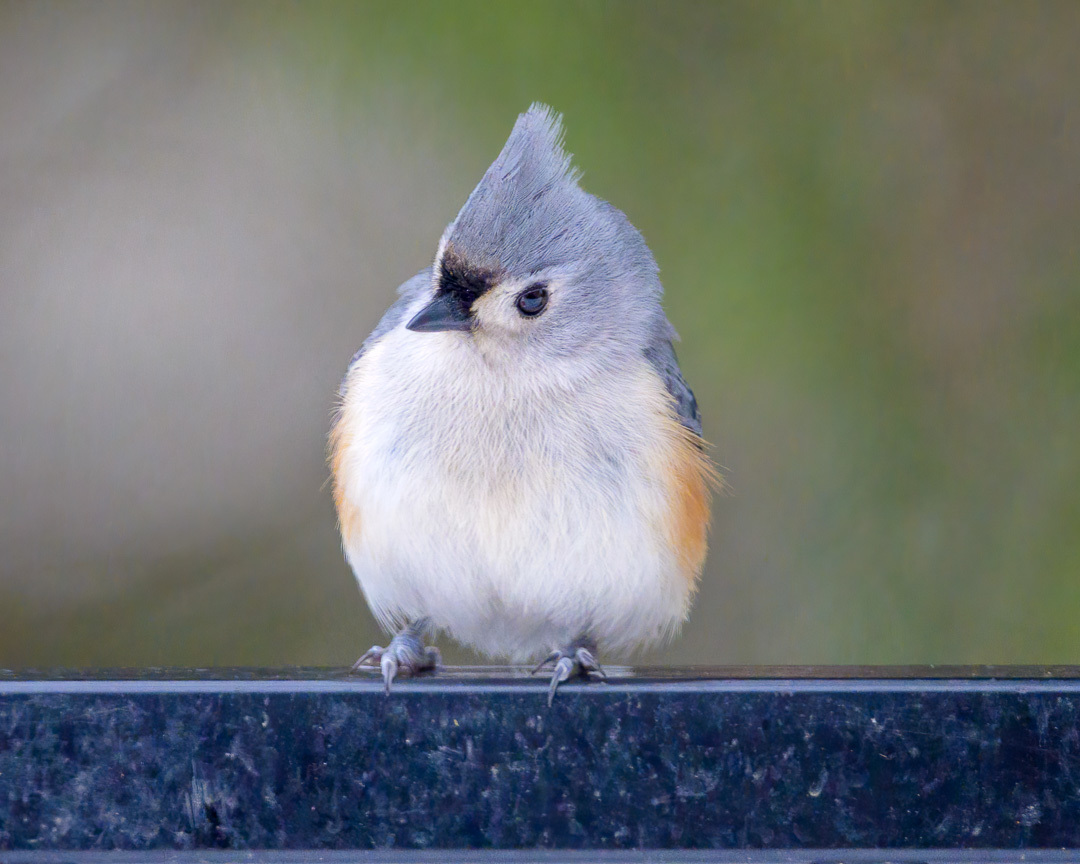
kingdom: Animalia
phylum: Chordata
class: Aves
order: Passeriformes
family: Paridae
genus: Baeolophus
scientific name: Baeolophus bicolor
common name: Tufted titmouse
